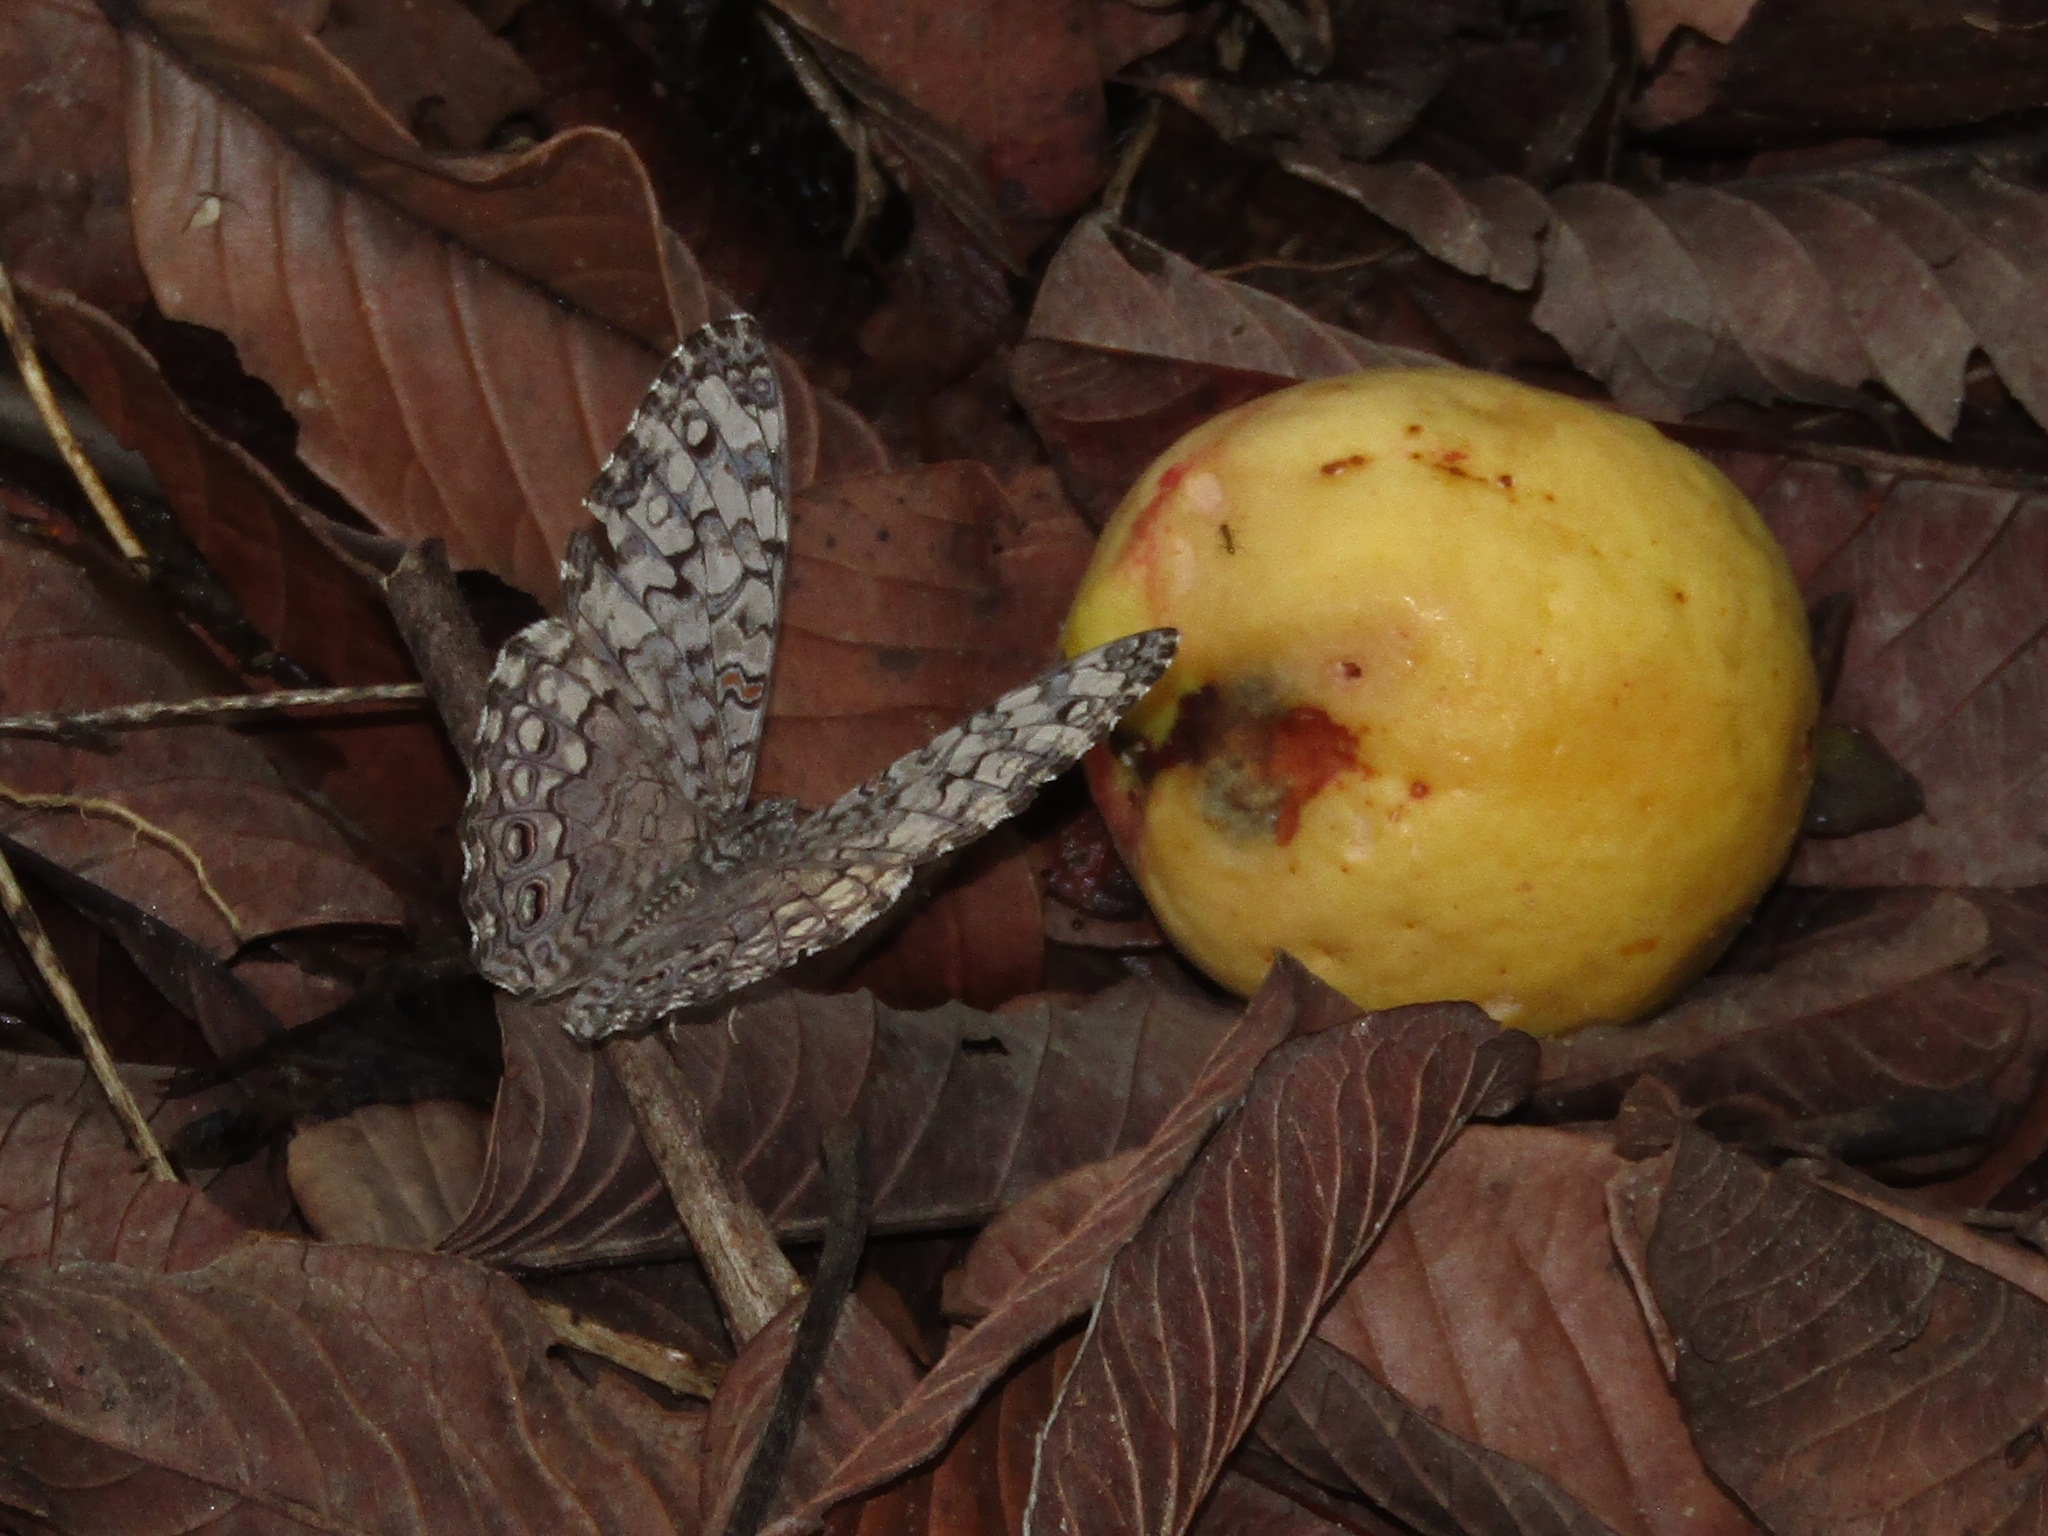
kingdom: Animalia
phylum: Arthropoda
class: Insecta
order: Lepidoptera
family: Nymphalidae
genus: Hamadryas
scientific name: Hamadryas februa
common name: Gray cracker
